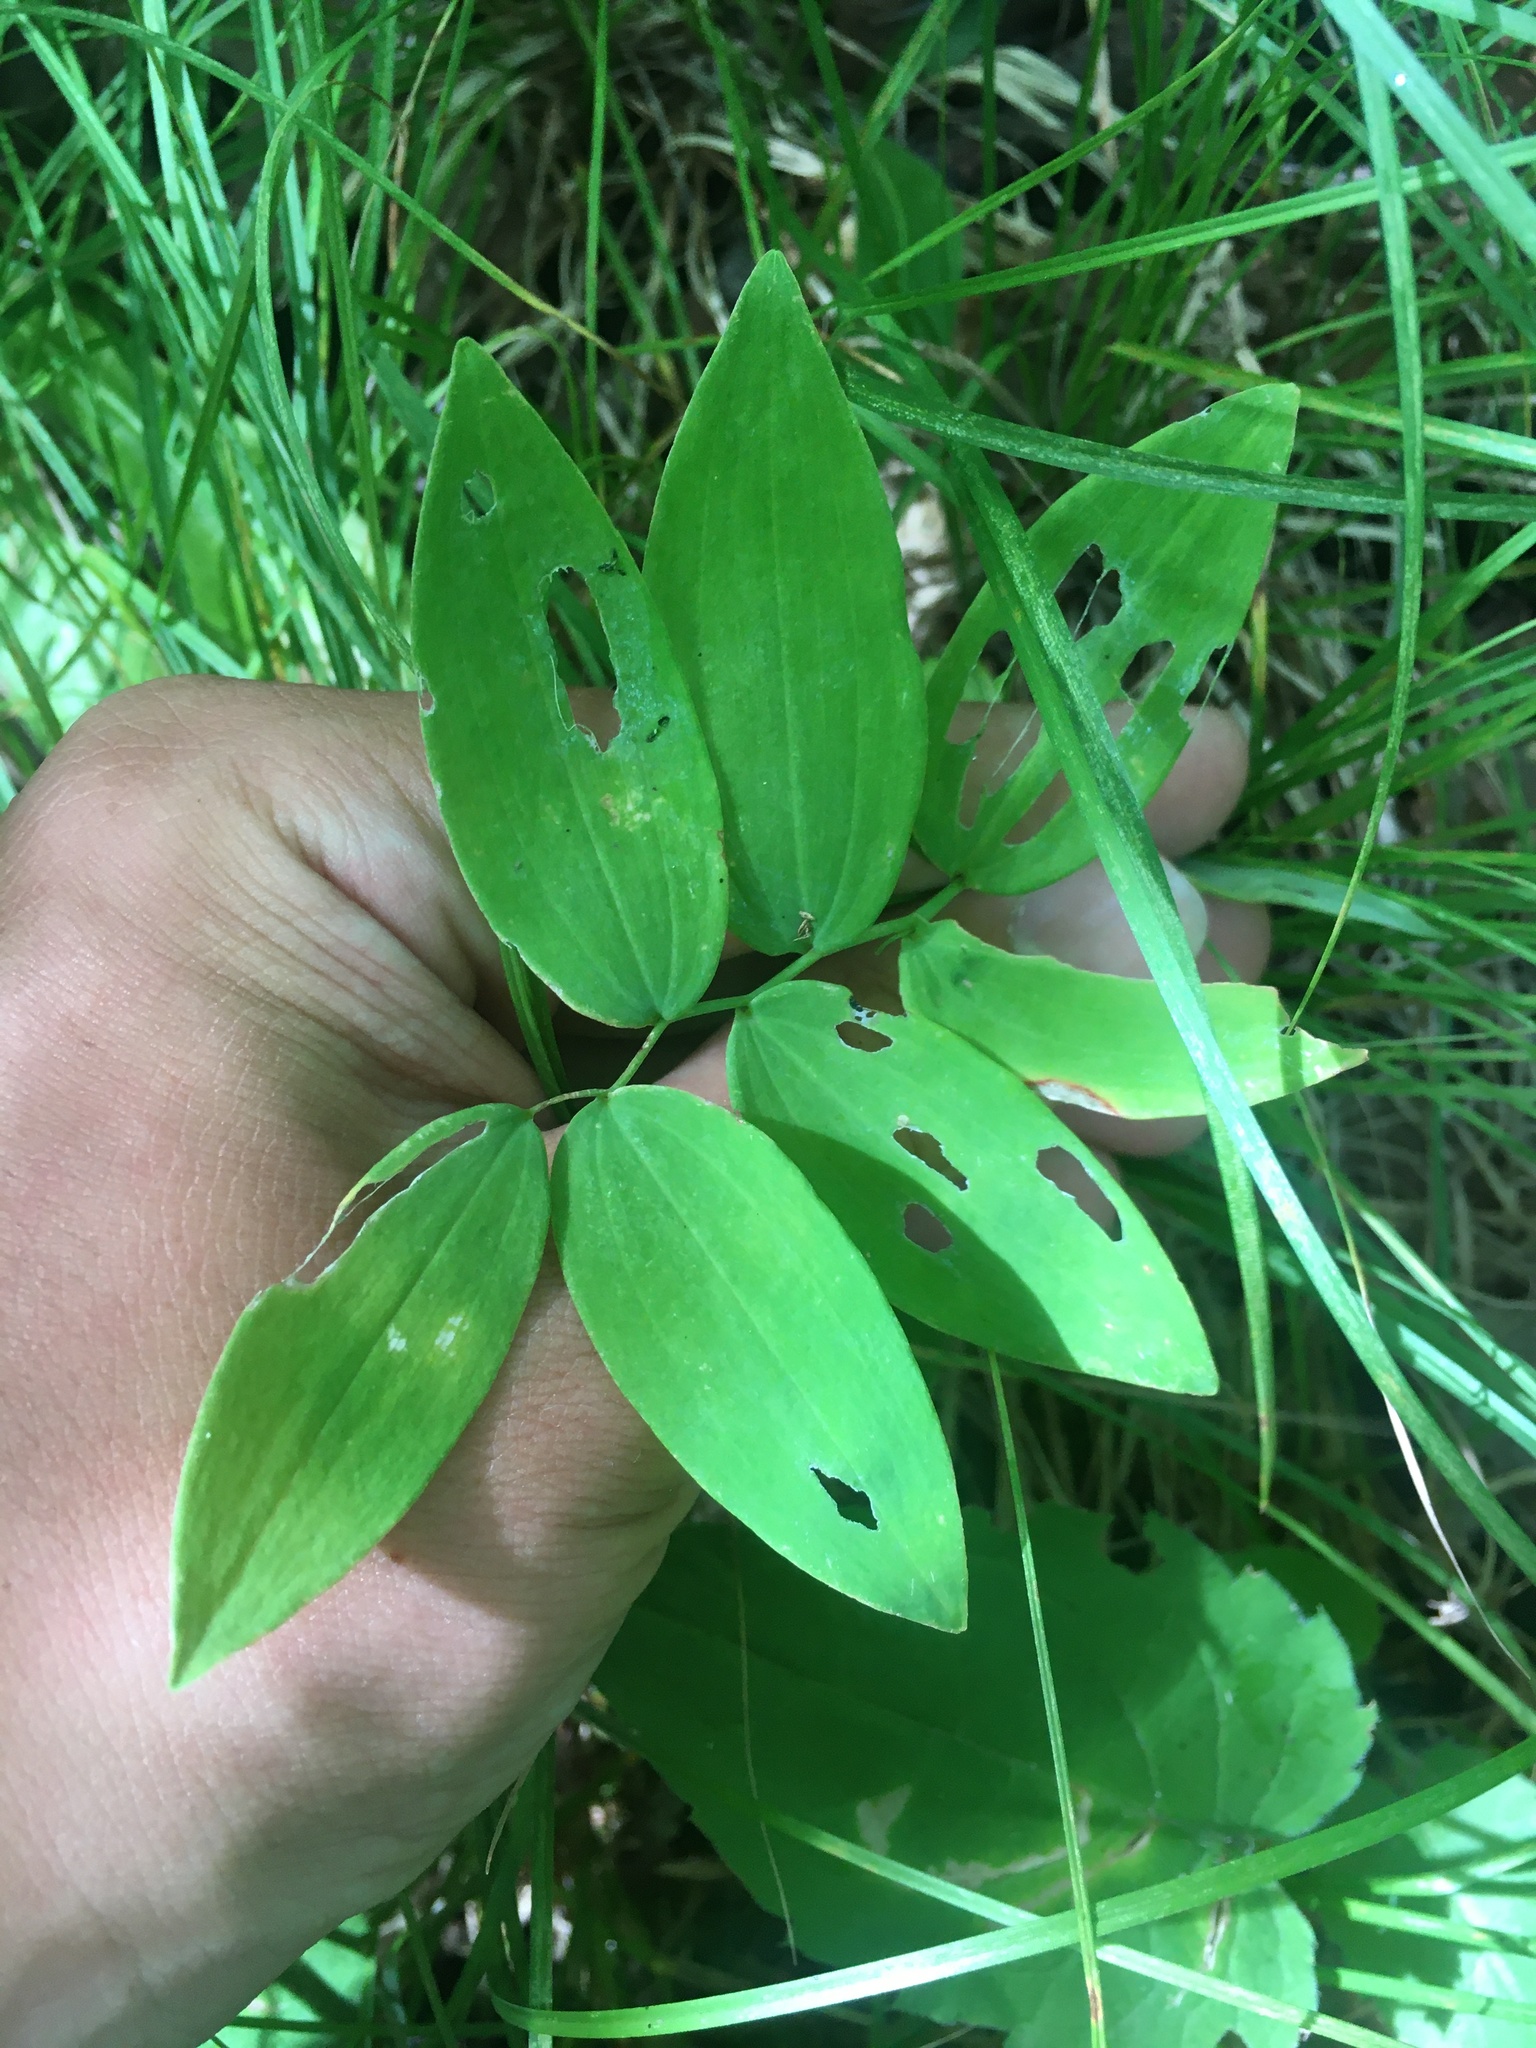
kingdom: Plantae
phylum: Tracheophyta
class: Liliopsida
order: Asparagales
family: Asparagaceae
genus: Polygonatum
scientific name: Polygonatum pubescens
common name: Downy solomon's seal
